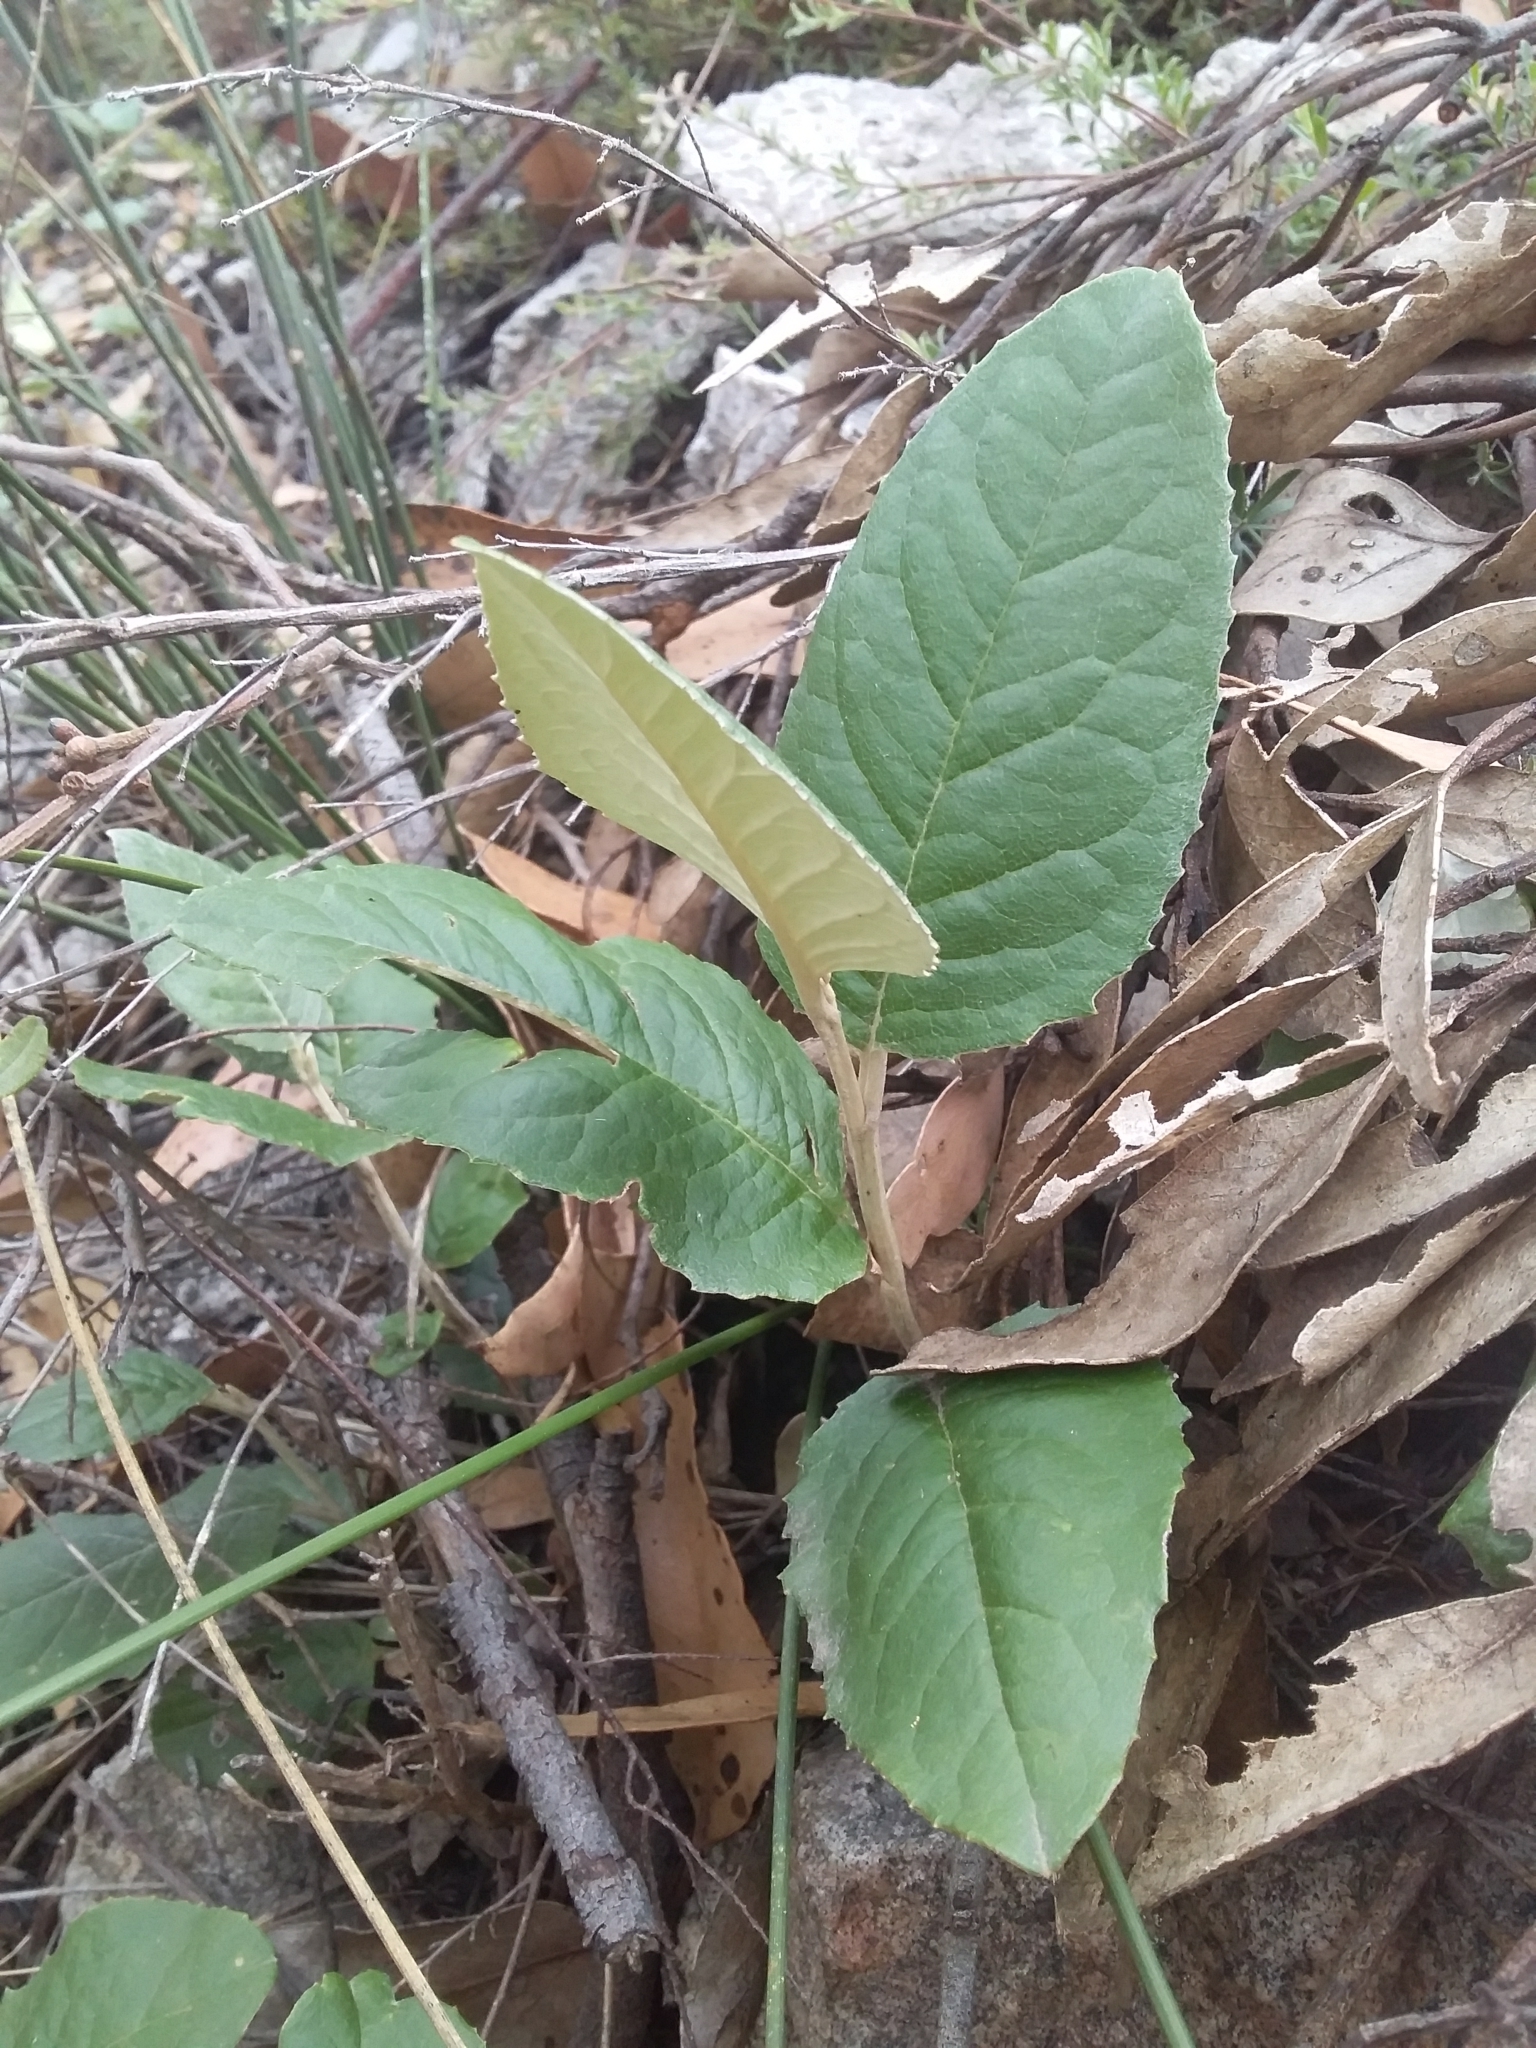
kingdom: Plantae
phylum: Tracheophyta
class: Magnoliopsida
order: Asterales
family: Asteraceae
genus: Olearia
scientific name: Olearia grandiflora
